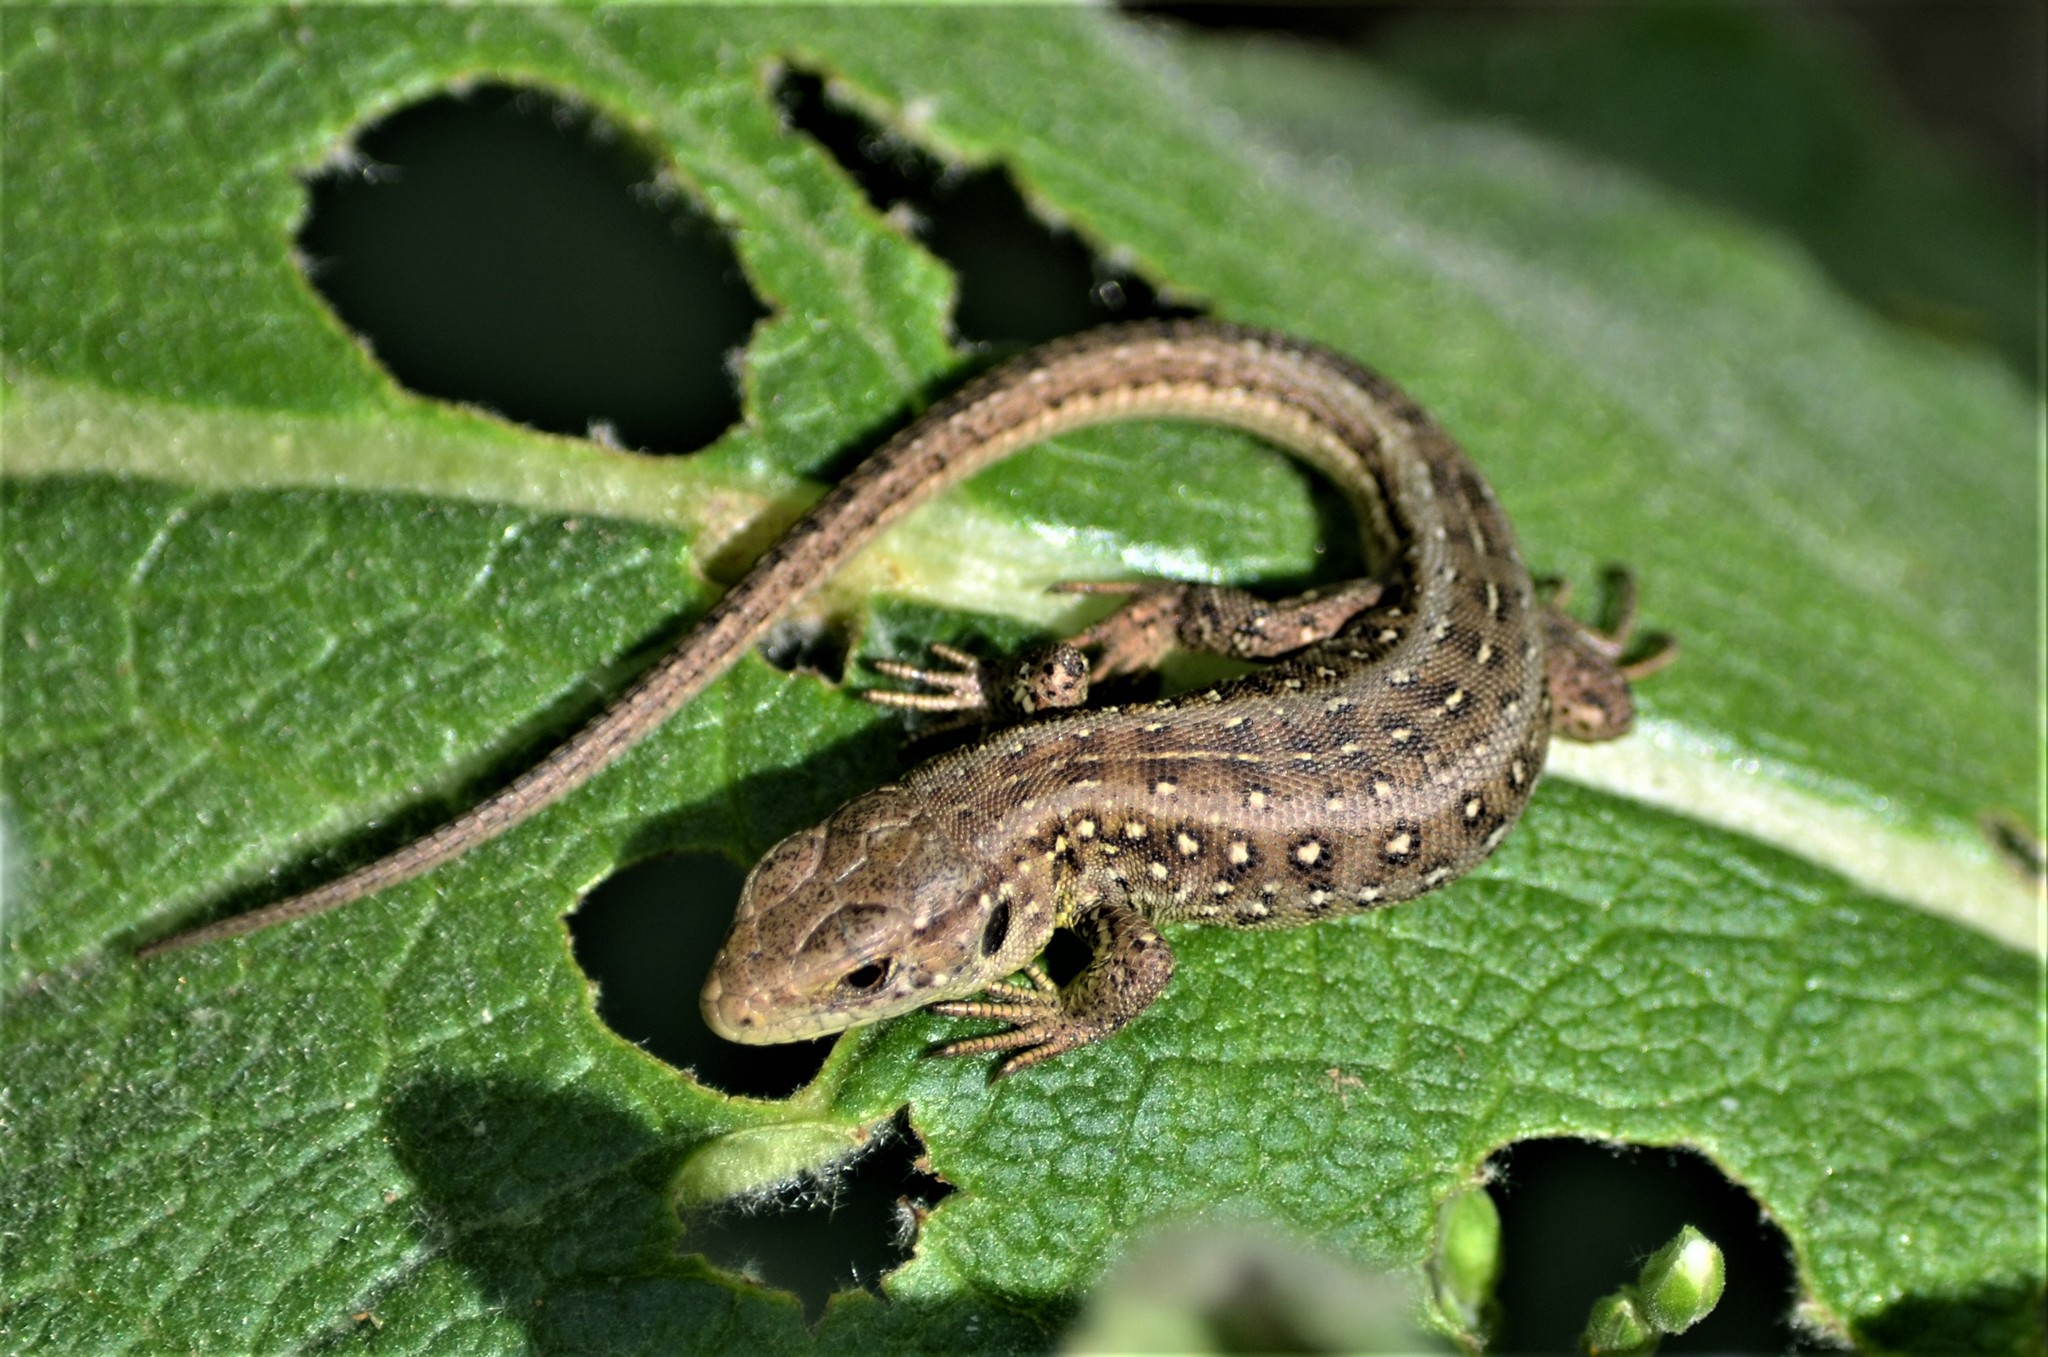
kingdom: Animalia
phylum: Chordata
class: Squamata
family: Lacertidae
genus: Lacerta
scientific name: Lacerta agilis
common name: Sand lizard
